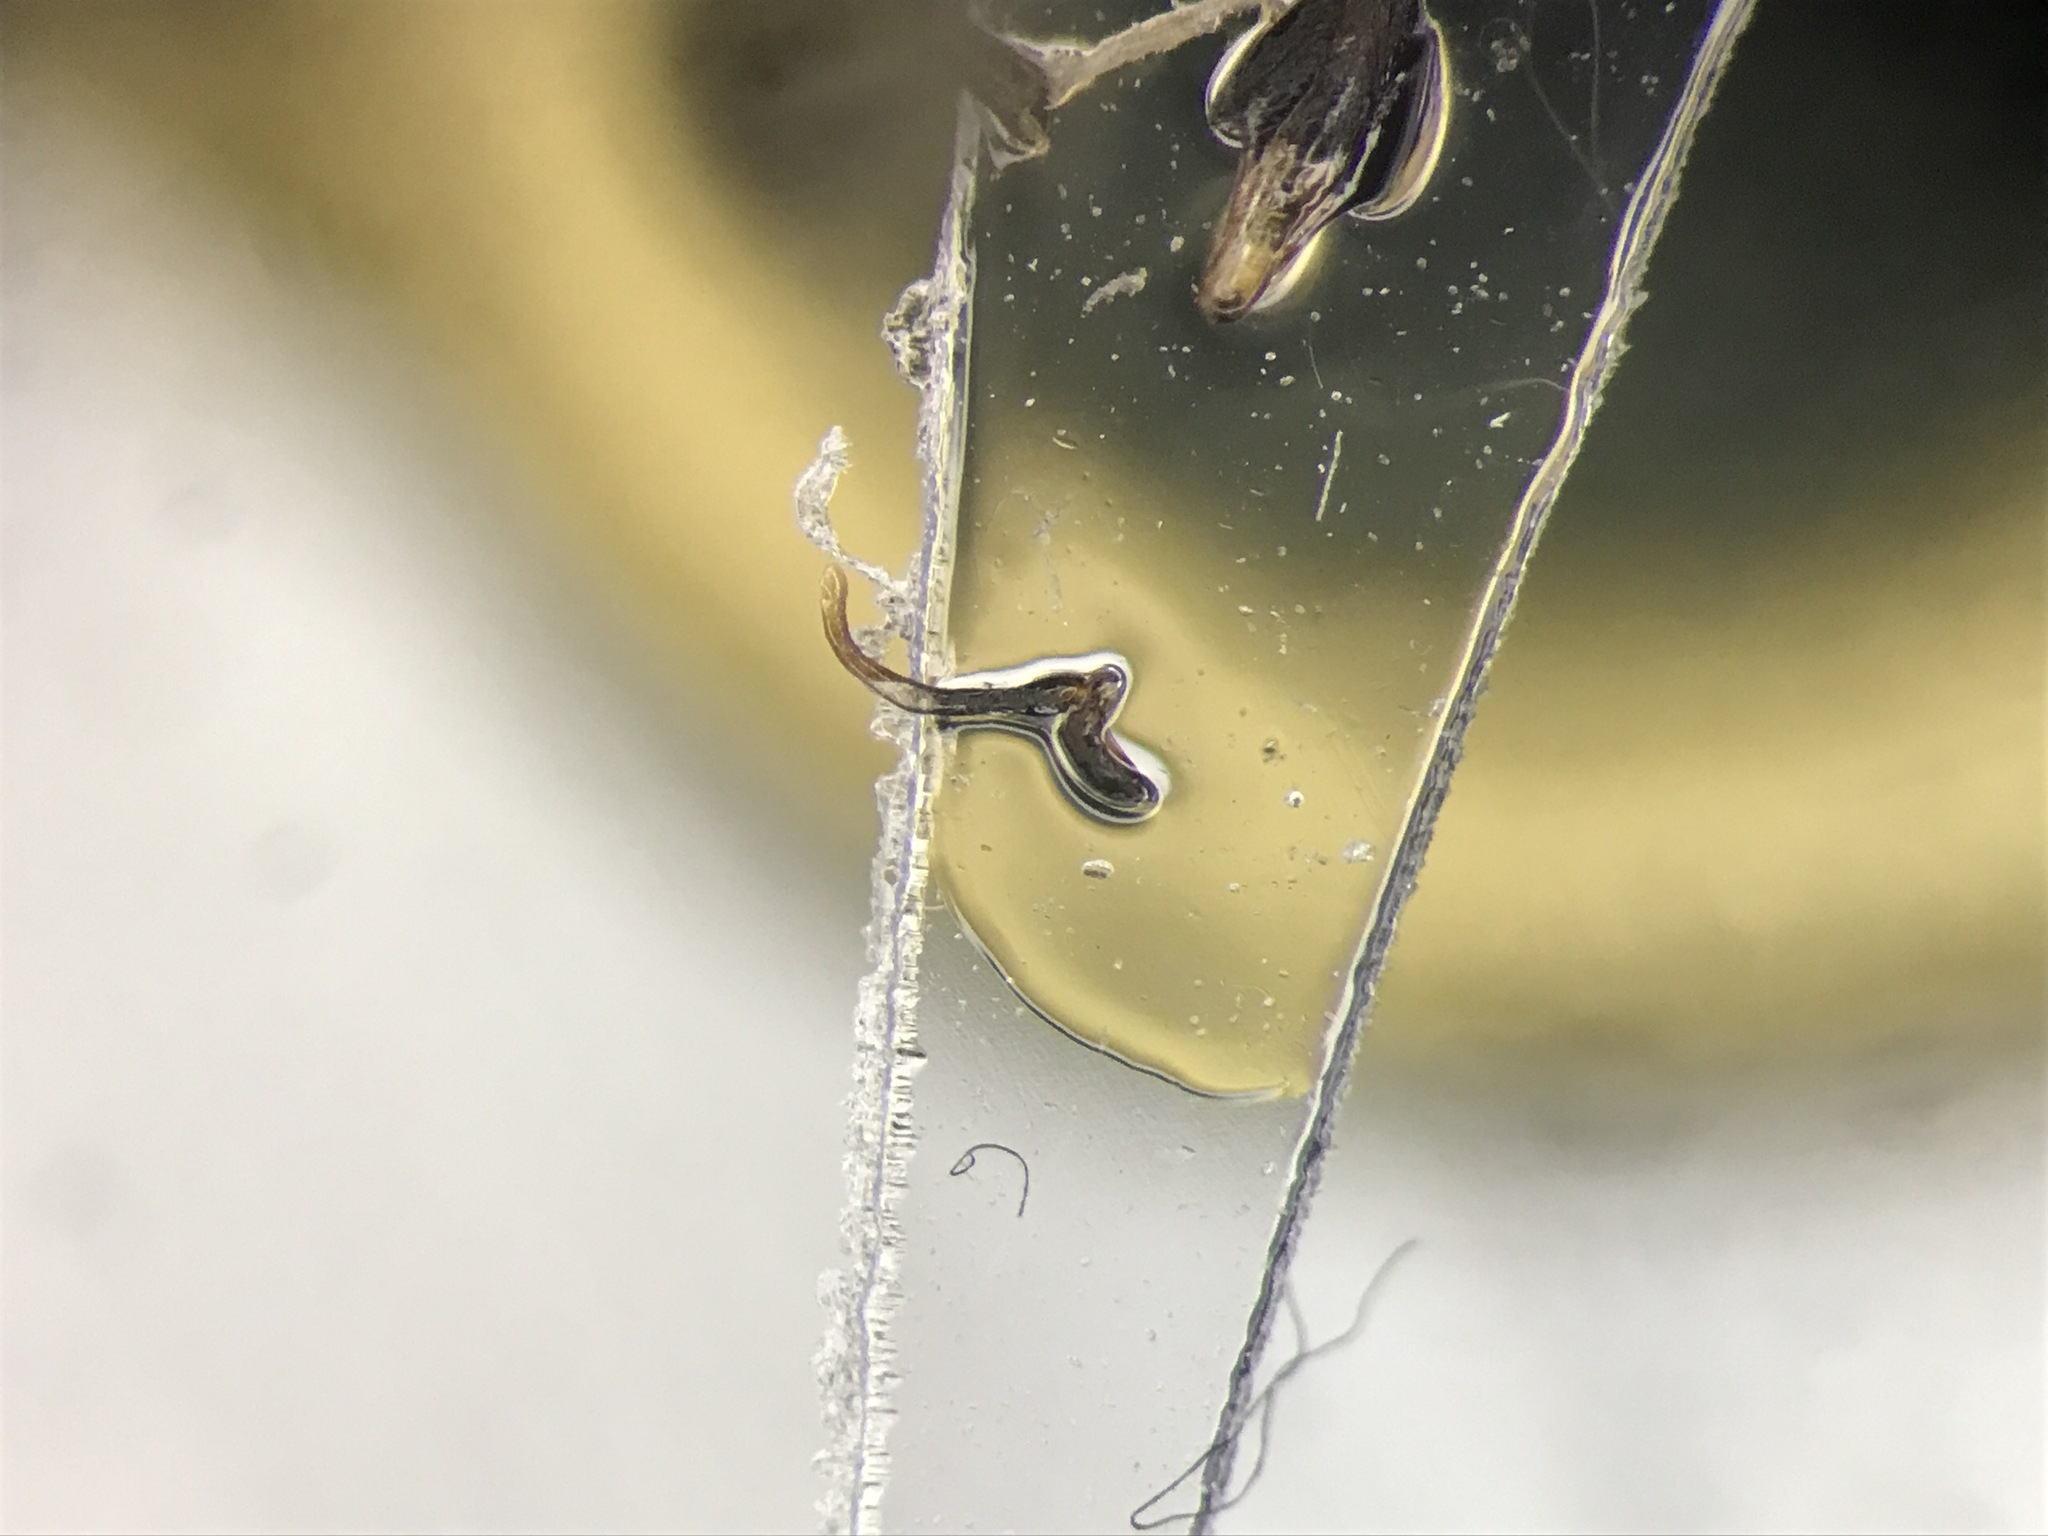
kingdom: Animalia
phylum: Arthropoda
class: Insecta
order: Coleoptera
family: Lycidae
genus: Plateros
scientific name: Plateros flavoscutellatus
